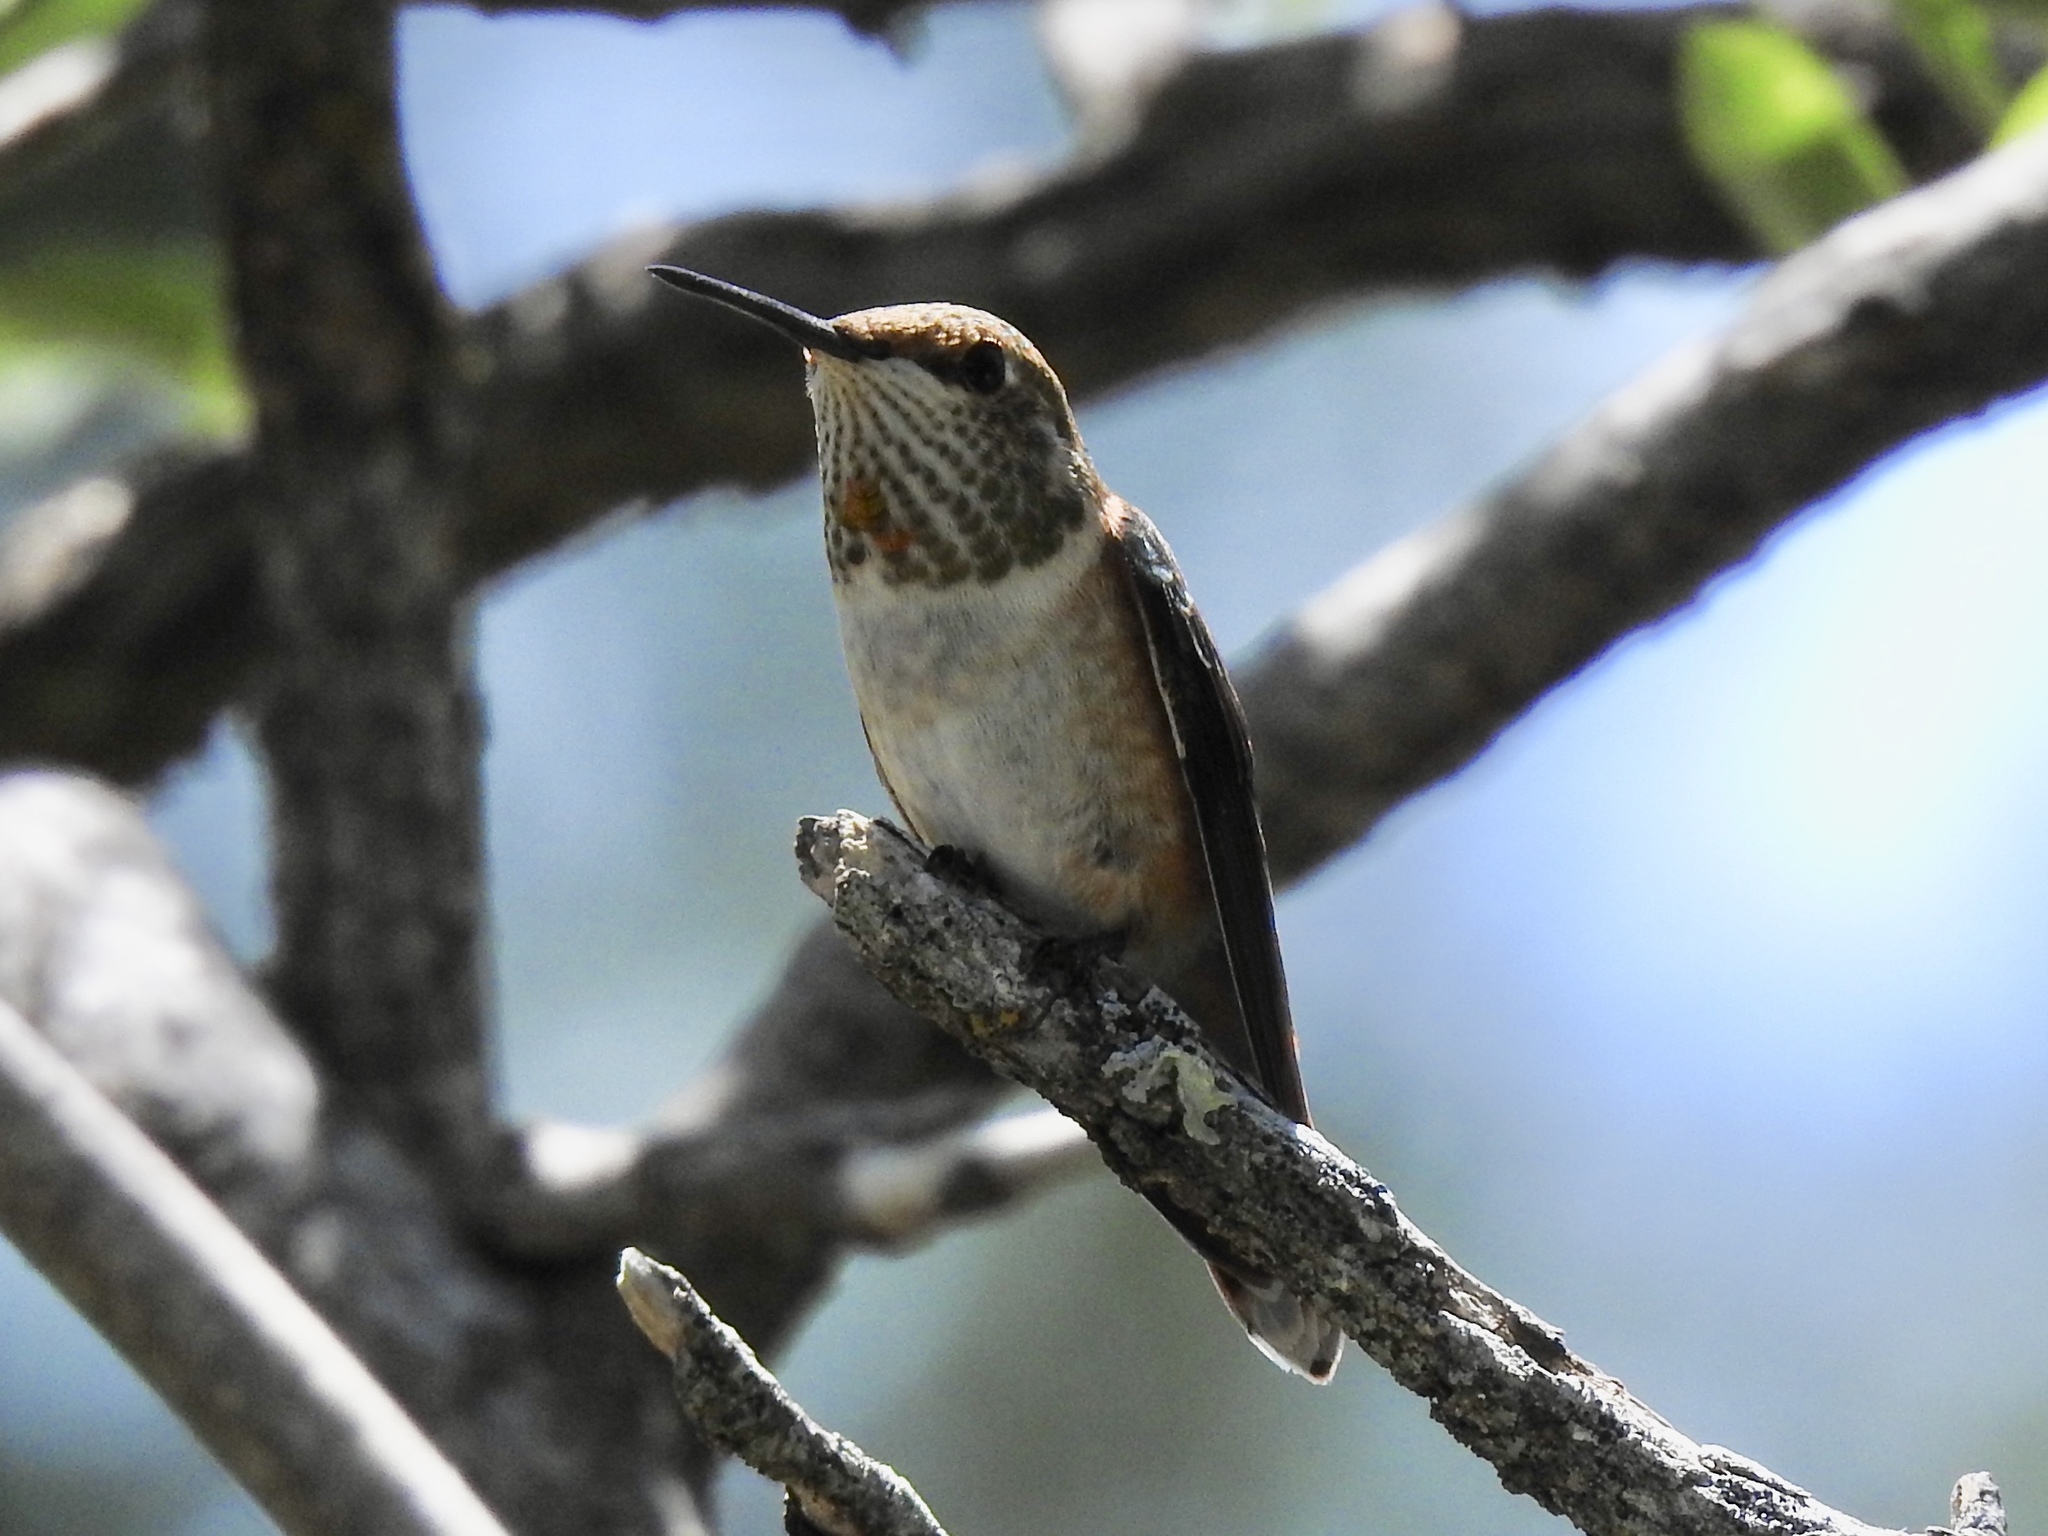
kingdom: Animalia
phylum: Chordata
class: Aves
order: Apodiformes
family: Trochilidae
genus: Selasphorus
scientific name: Selasphorus rufus
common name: Rufous hummingbird
